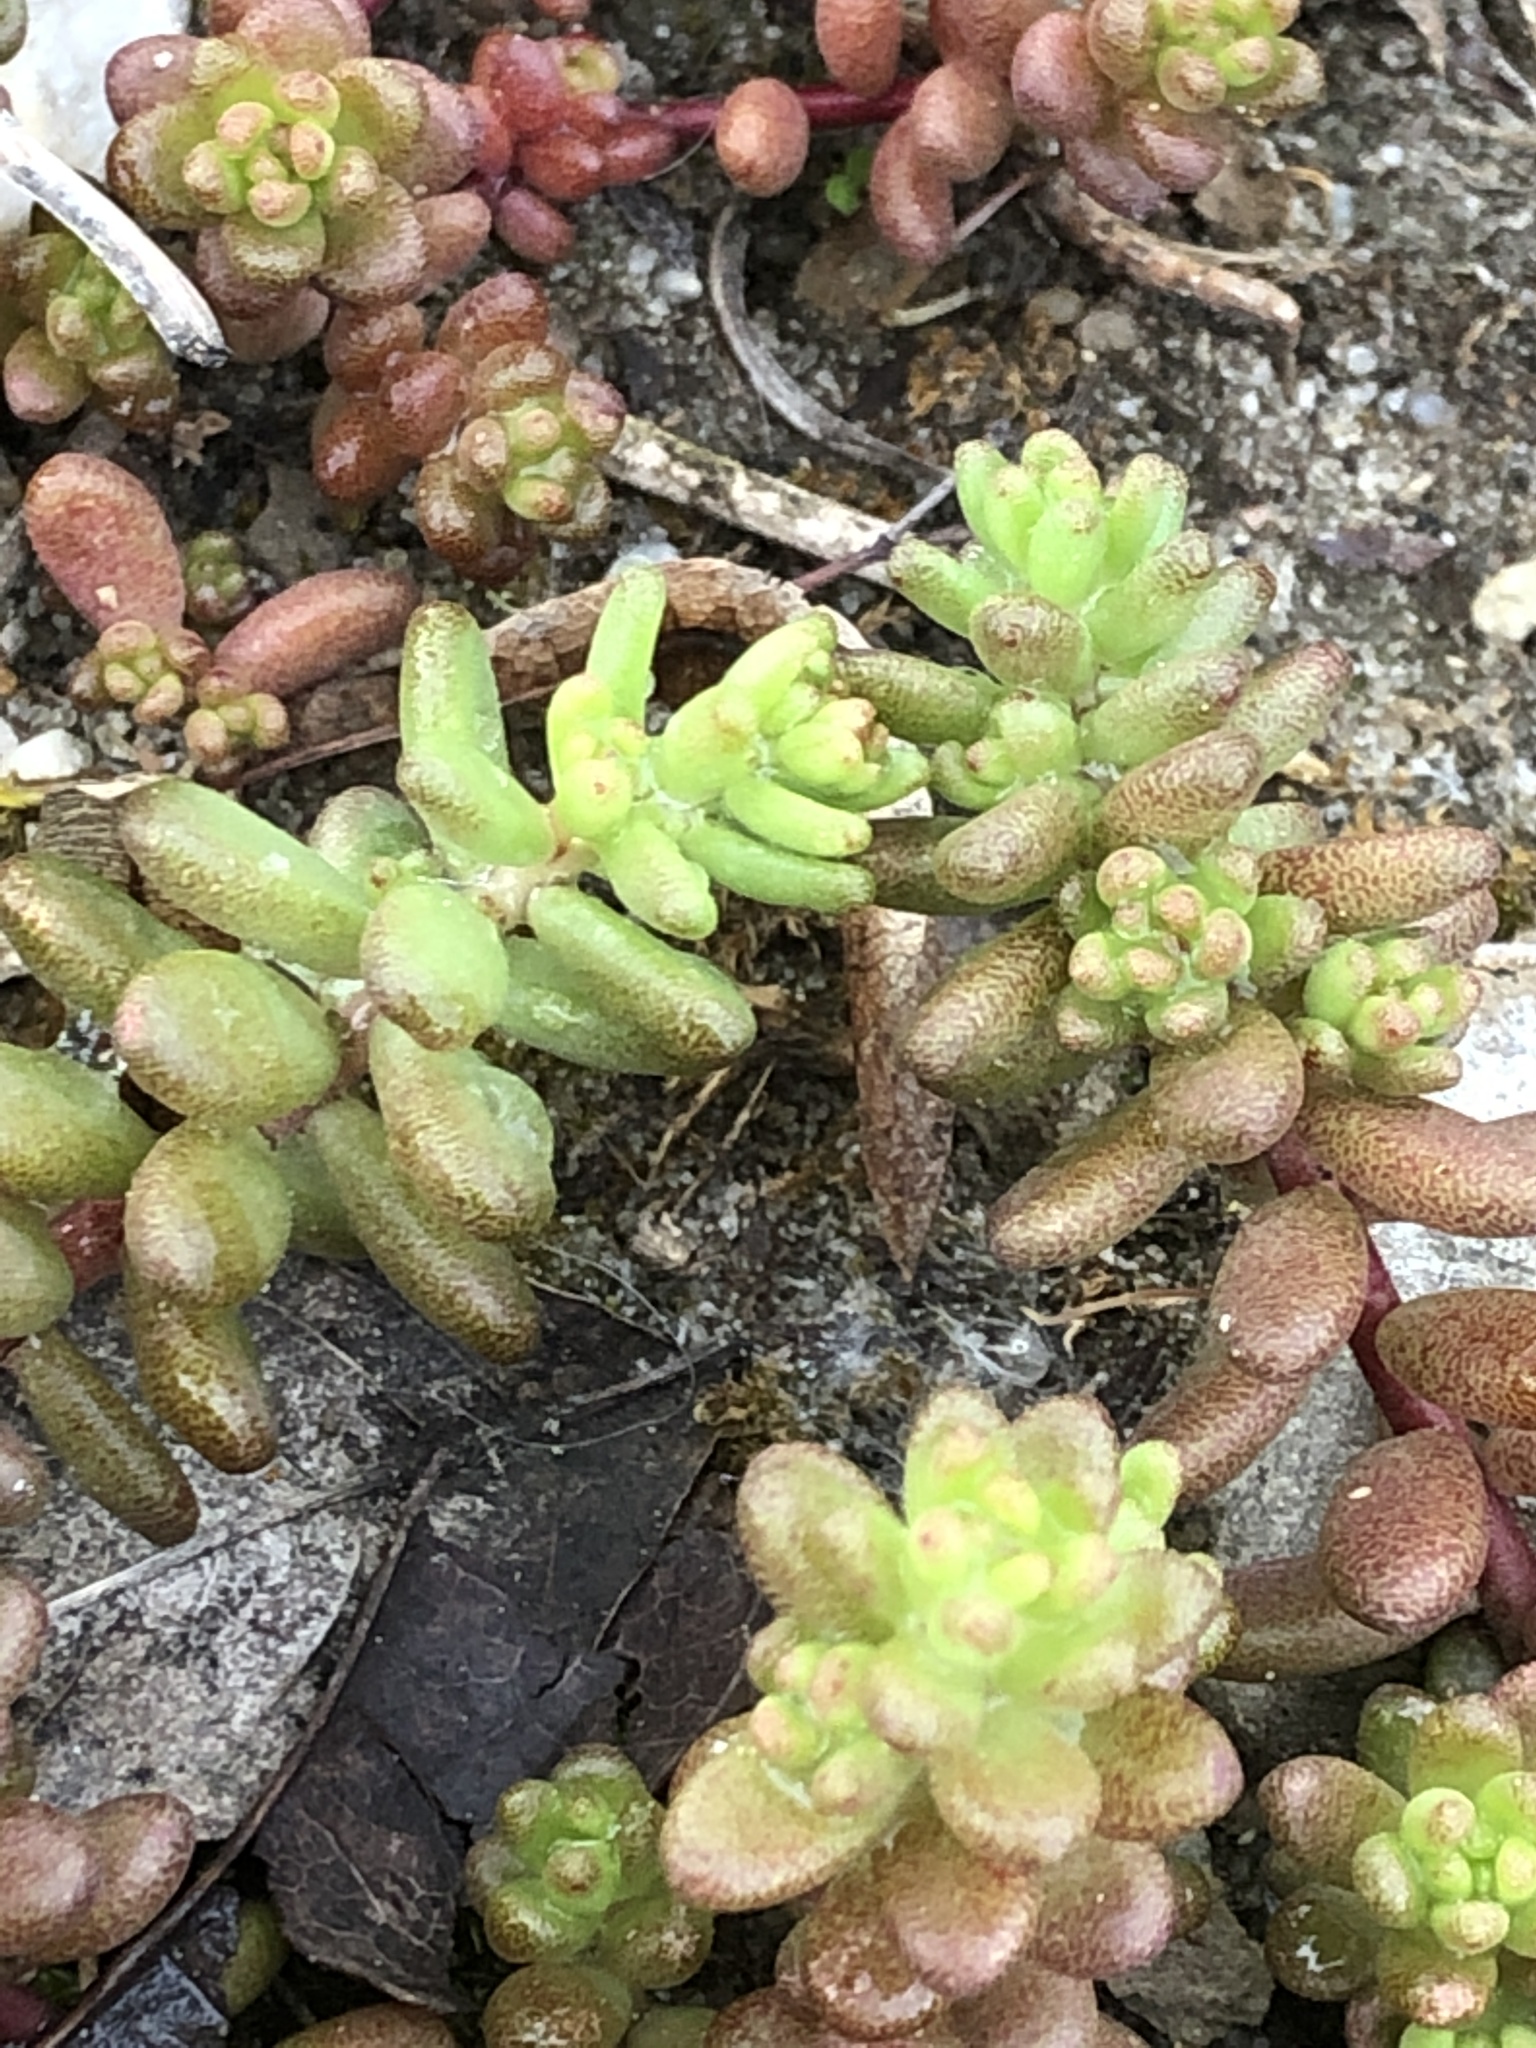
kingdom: Plantae
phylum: Tracheophyta
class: Magnoliopsida
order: Saxifragales
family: Crassulaceae
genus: Sedum
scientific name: Sedum album
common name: White stonecrop
